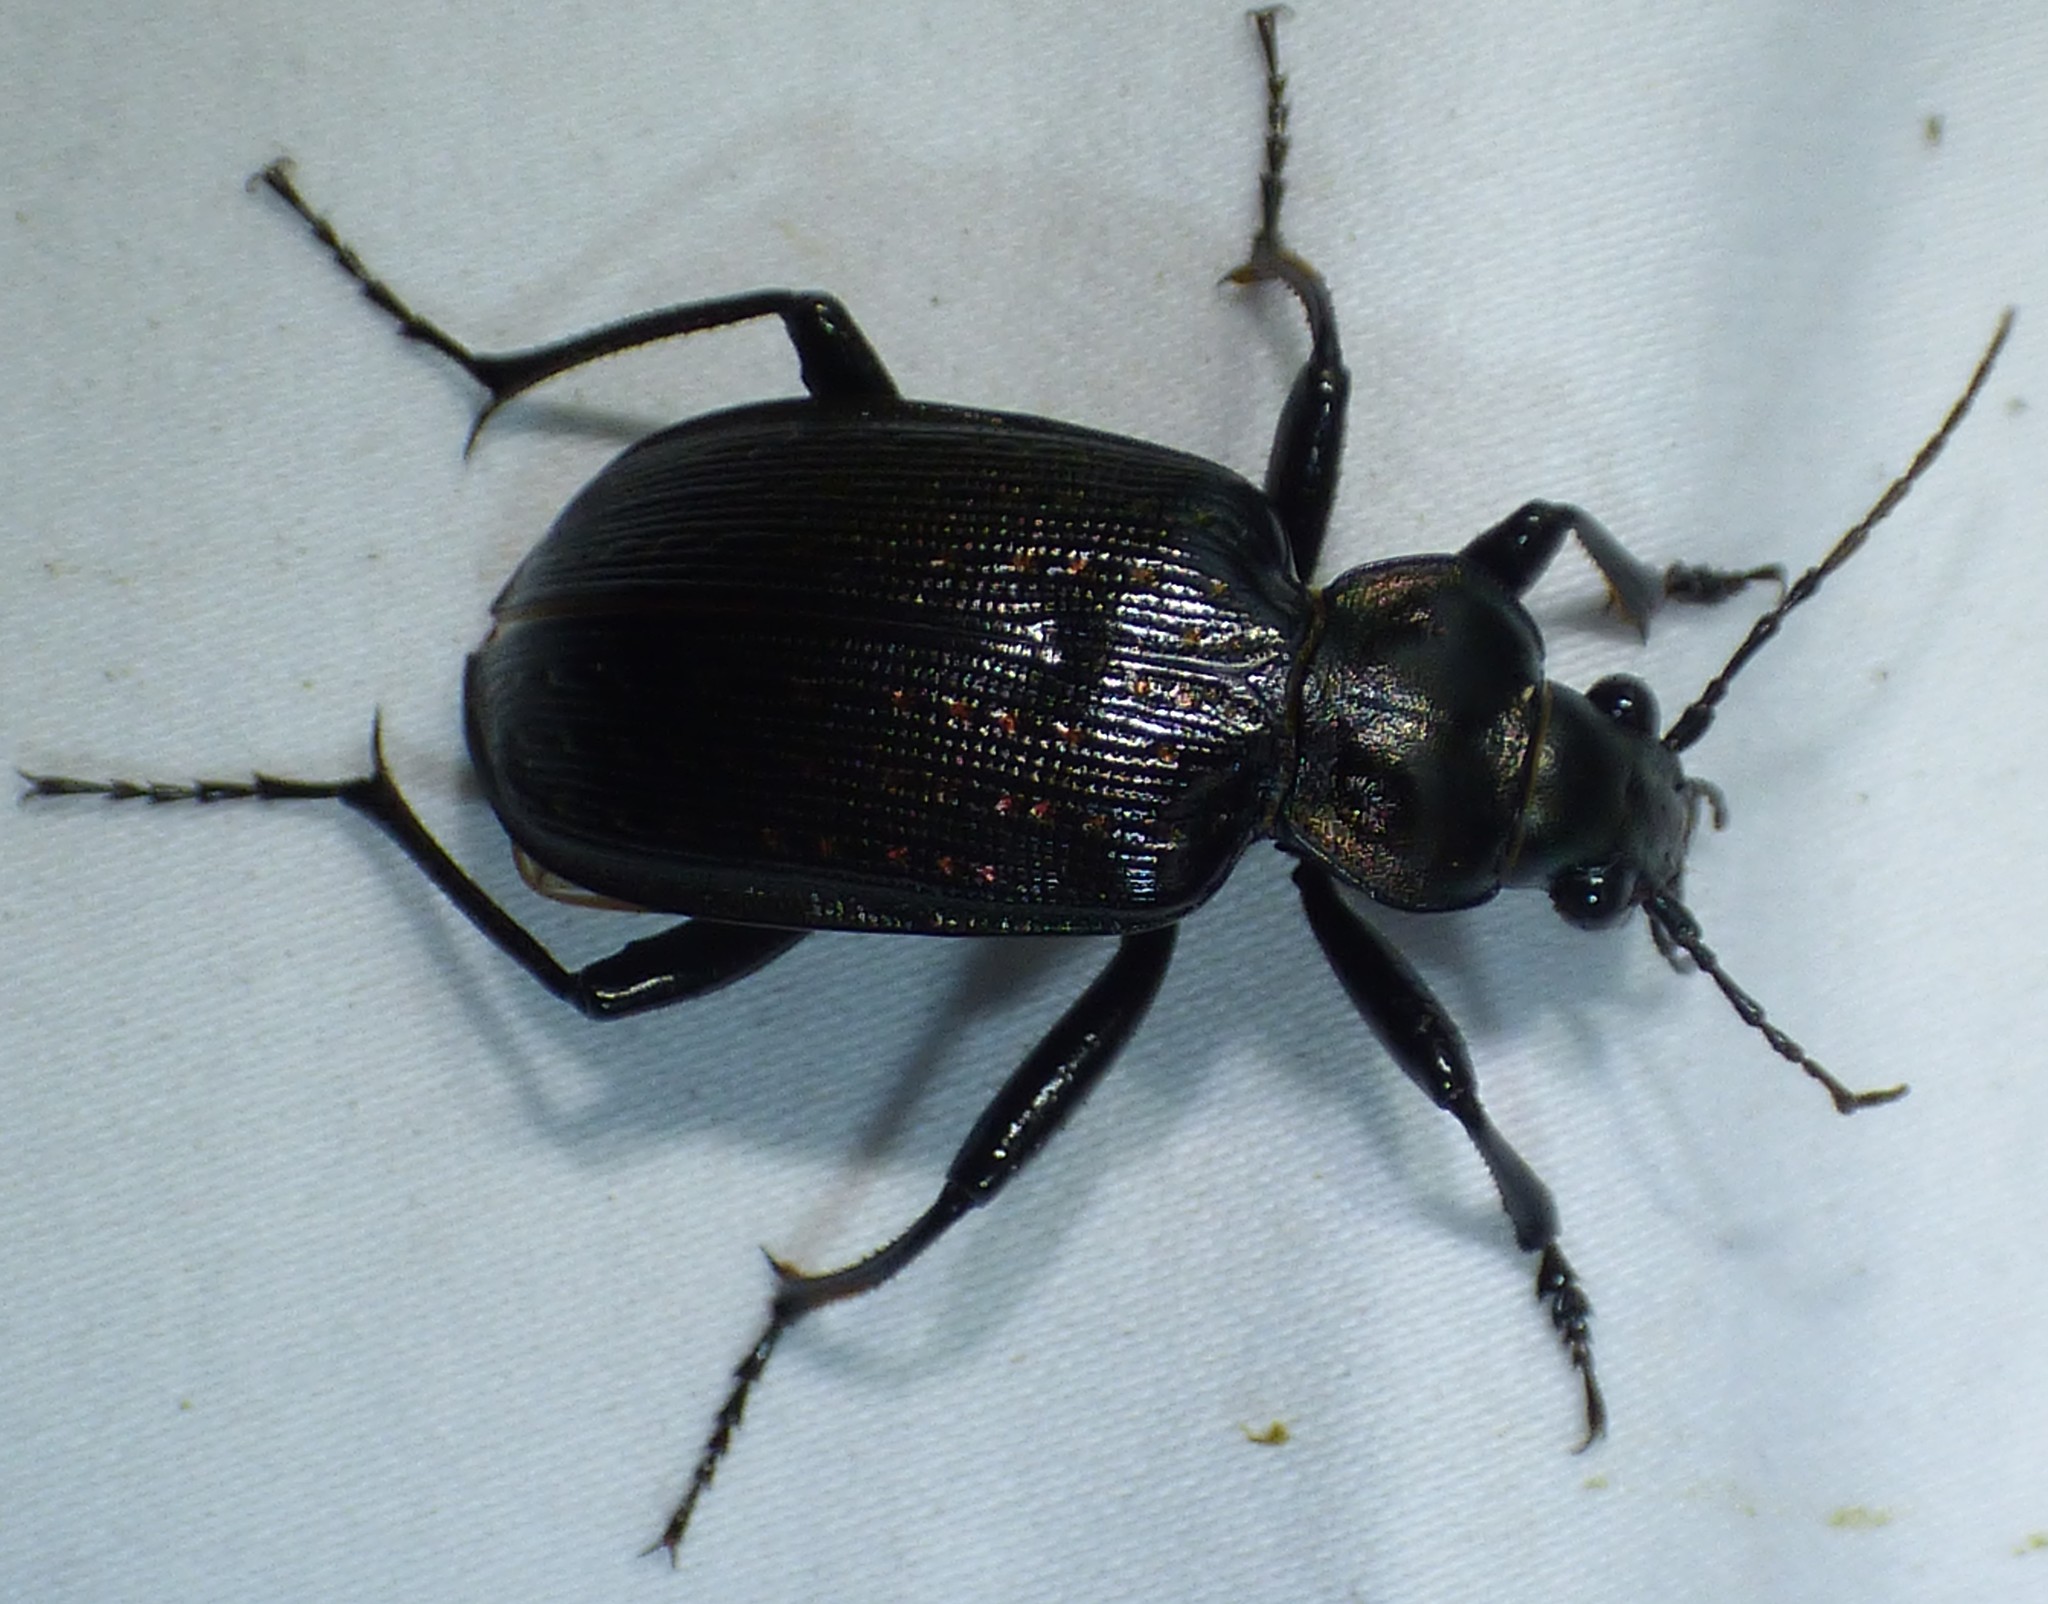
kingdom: Animalia
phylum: Arthropoda
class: Insecta
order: Coleoptera
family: Carabidae
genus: Calosoma
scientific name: Calosoma sayi
